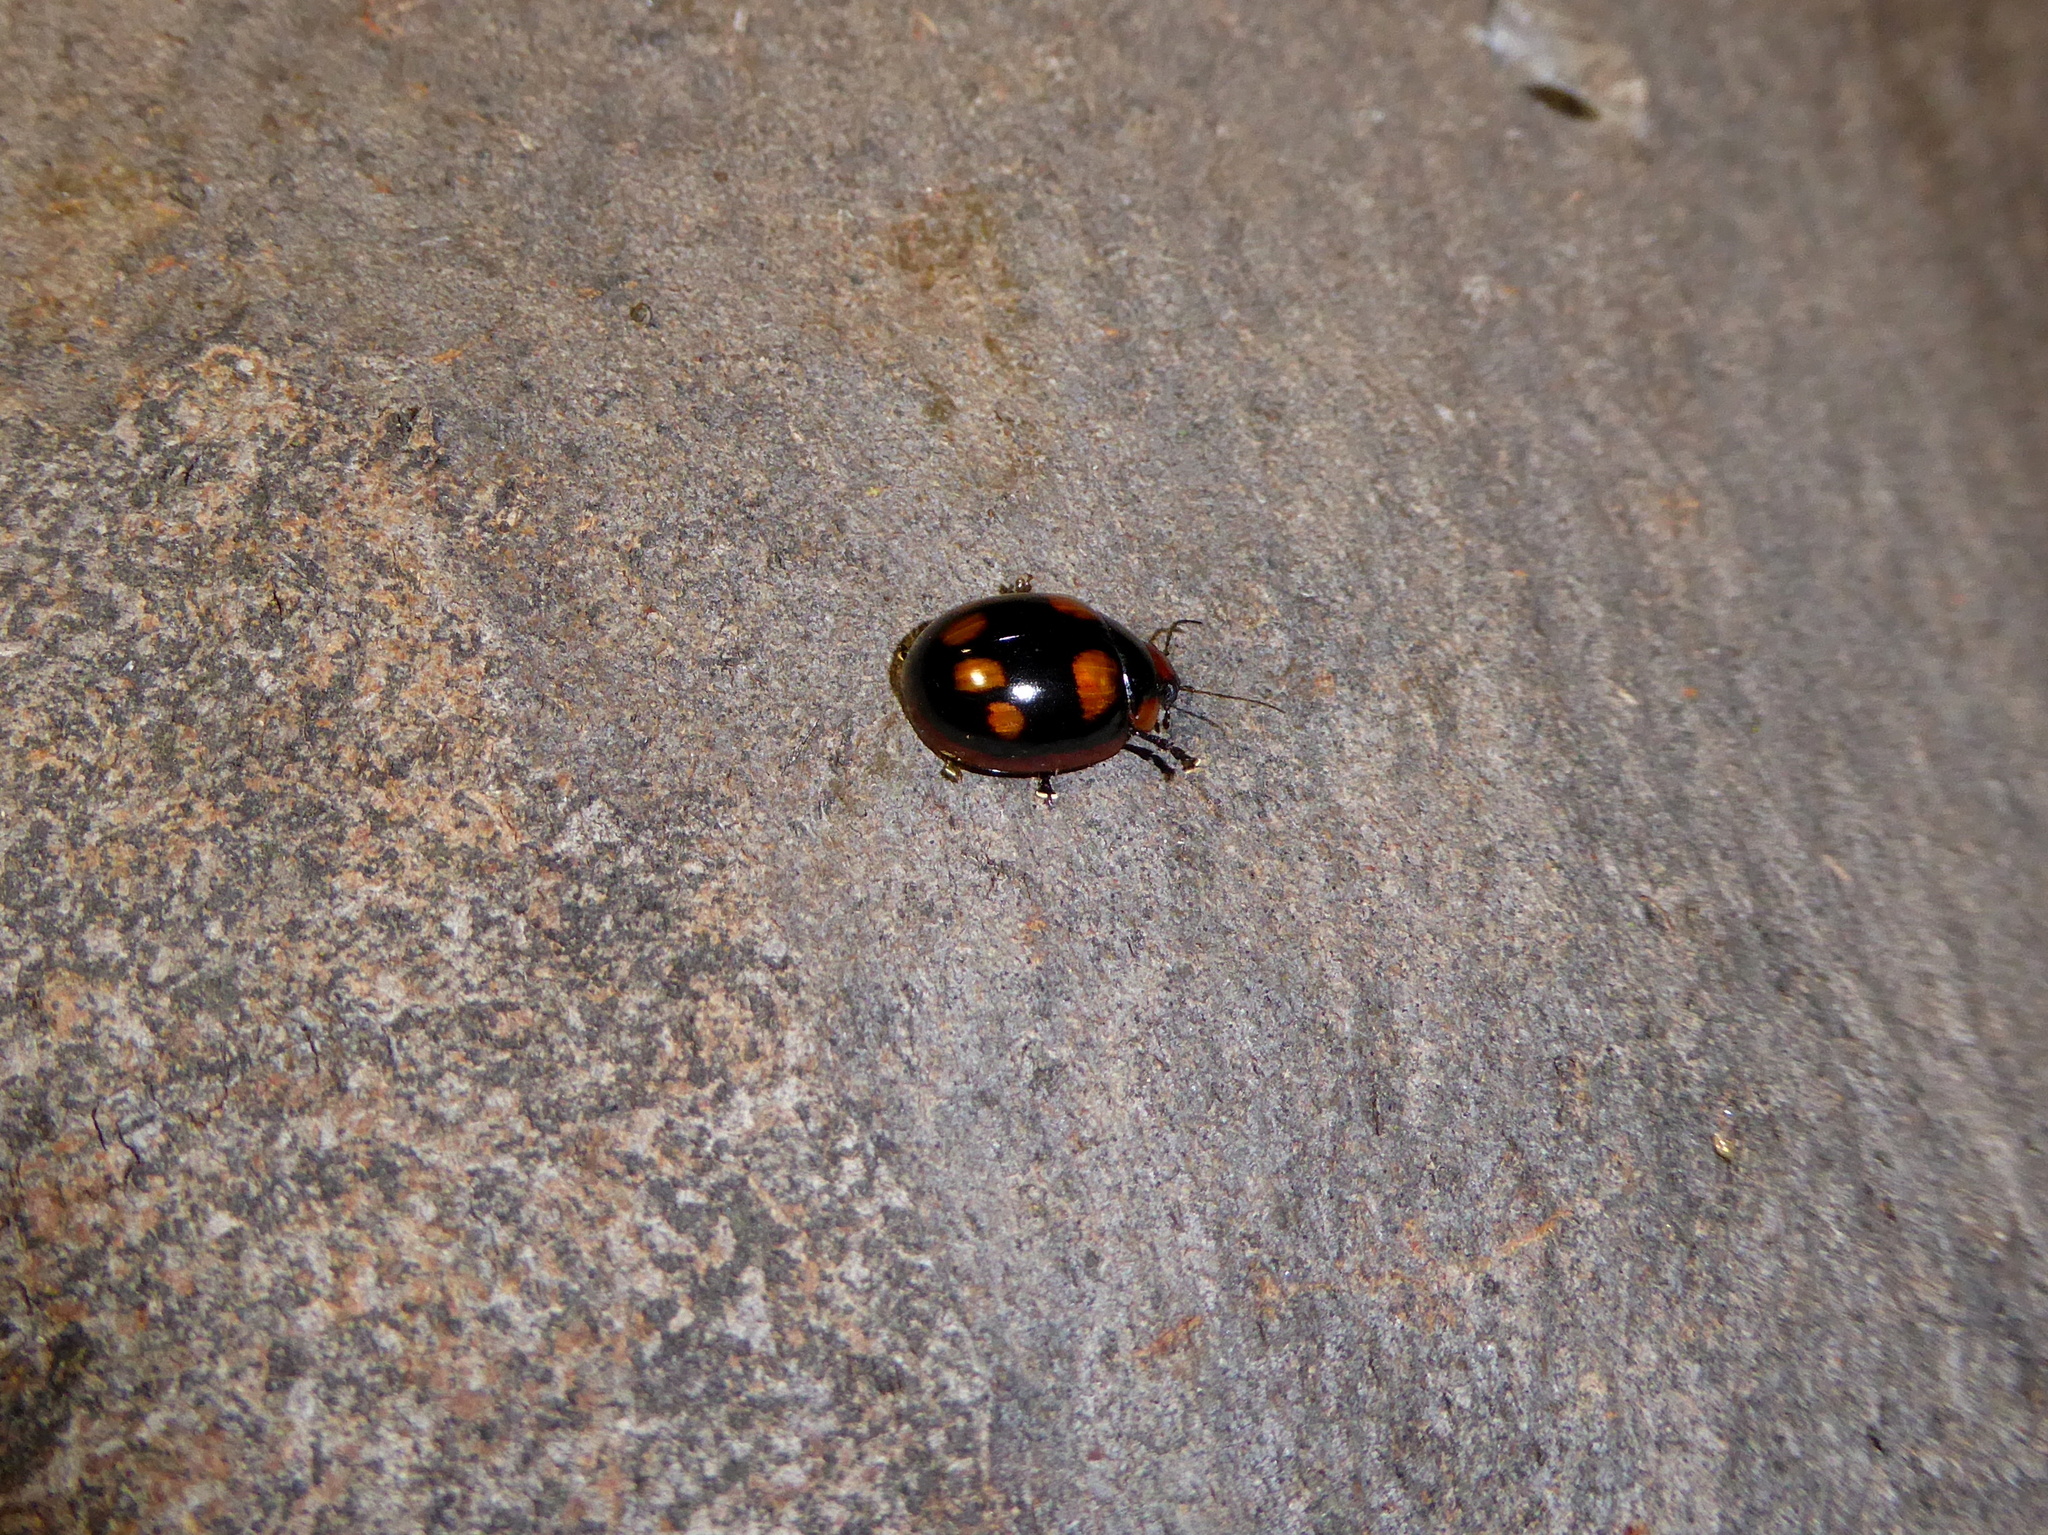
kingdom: Animalia
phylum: Arthropoda
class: Insecta
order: Coleoptera
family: Chrysomelidae
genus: Paropsisterna
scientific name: Paropsisterna beata
